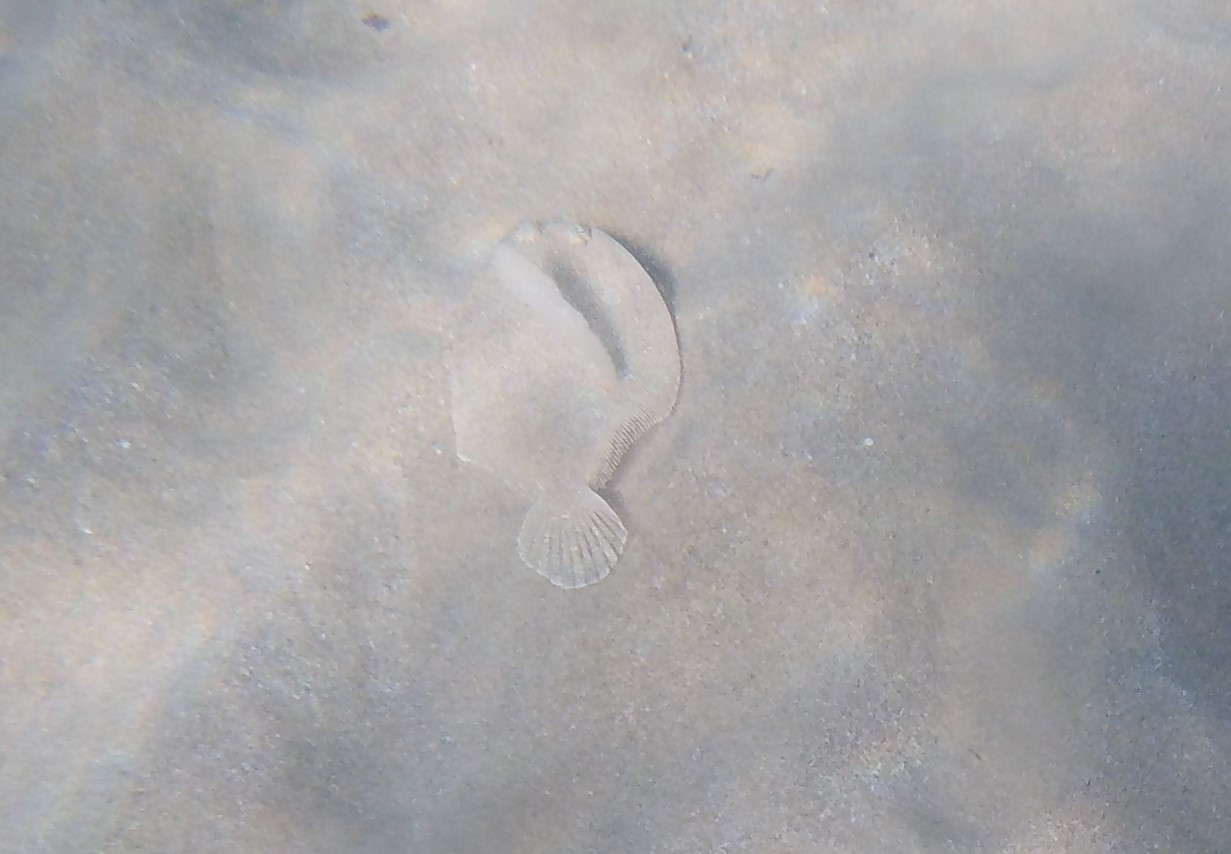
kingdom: Animalia
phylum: Chordata
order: Pleuronectiformes
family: Bothidae
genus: Bothus
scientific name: Bothus podas
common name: Wide-eyed flounder
